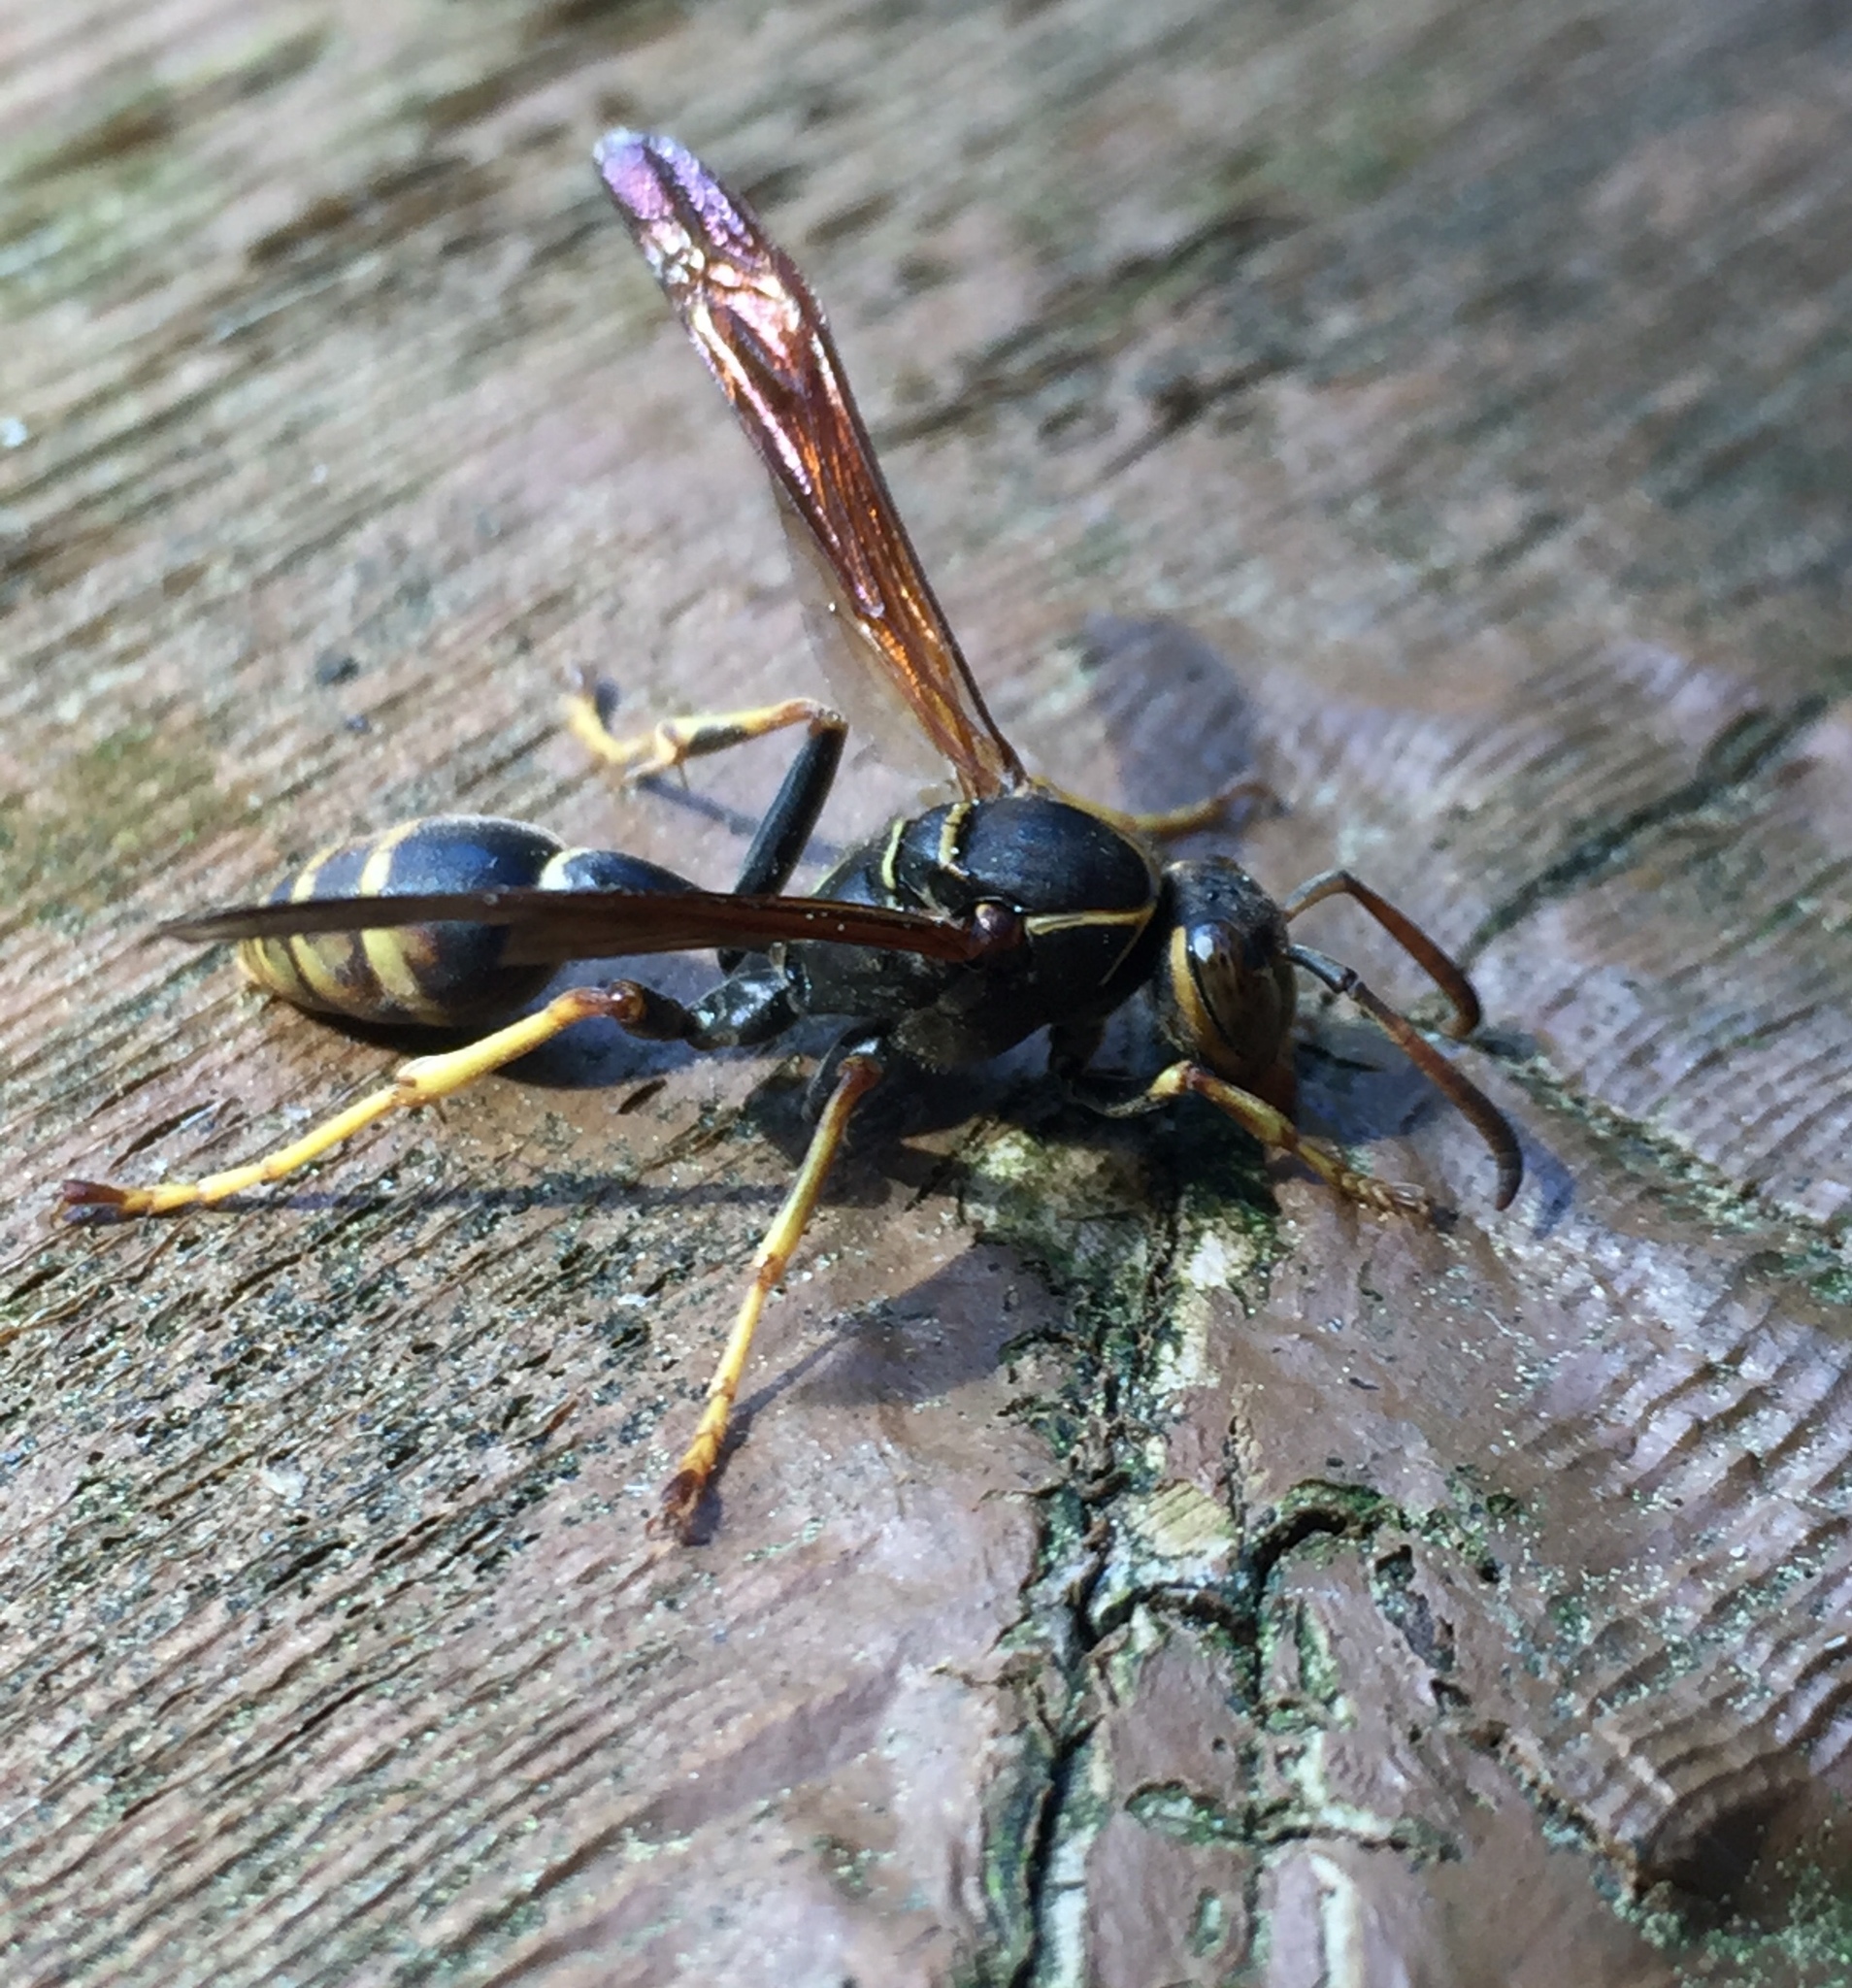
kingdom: Animalia
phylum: Arthropoda
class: Insecta
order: Hymenoptera
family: Vespidae
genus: Mischocyttarus
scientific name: Mischocyttarus flavitarsis
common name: Wasp
